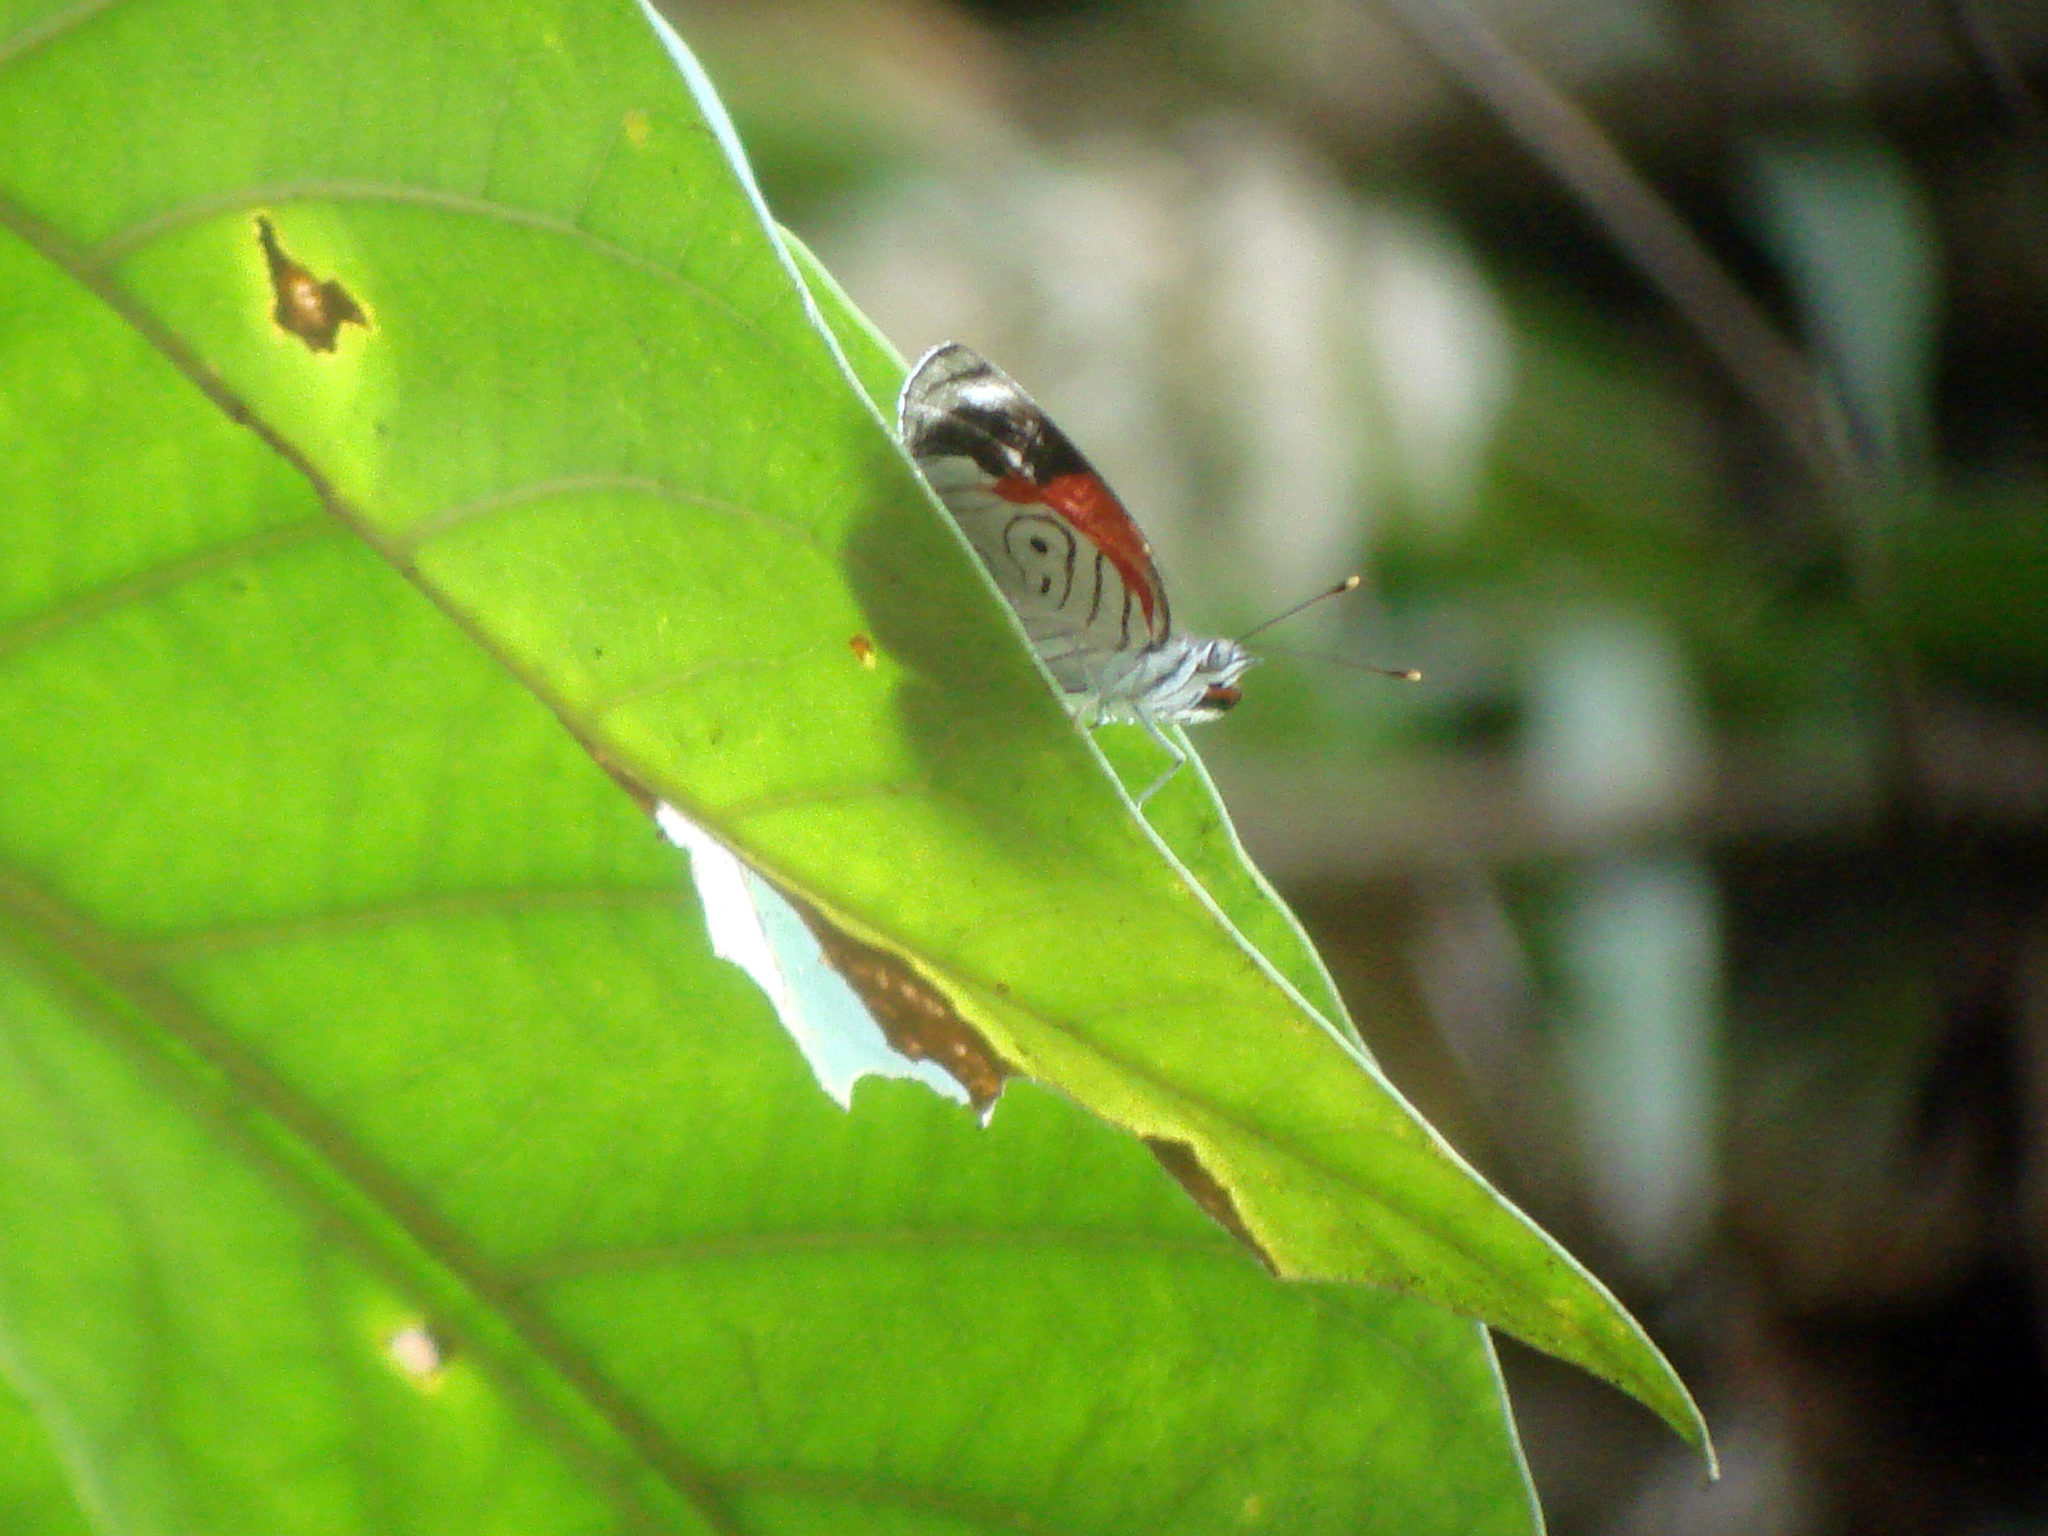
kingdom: Animalia
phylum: Arthropoda
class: Insecta
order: Lepidoptera
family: Nymphalidae
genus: Diaethria
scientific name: Diaethria anna
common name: Anna’s eighty-eight
